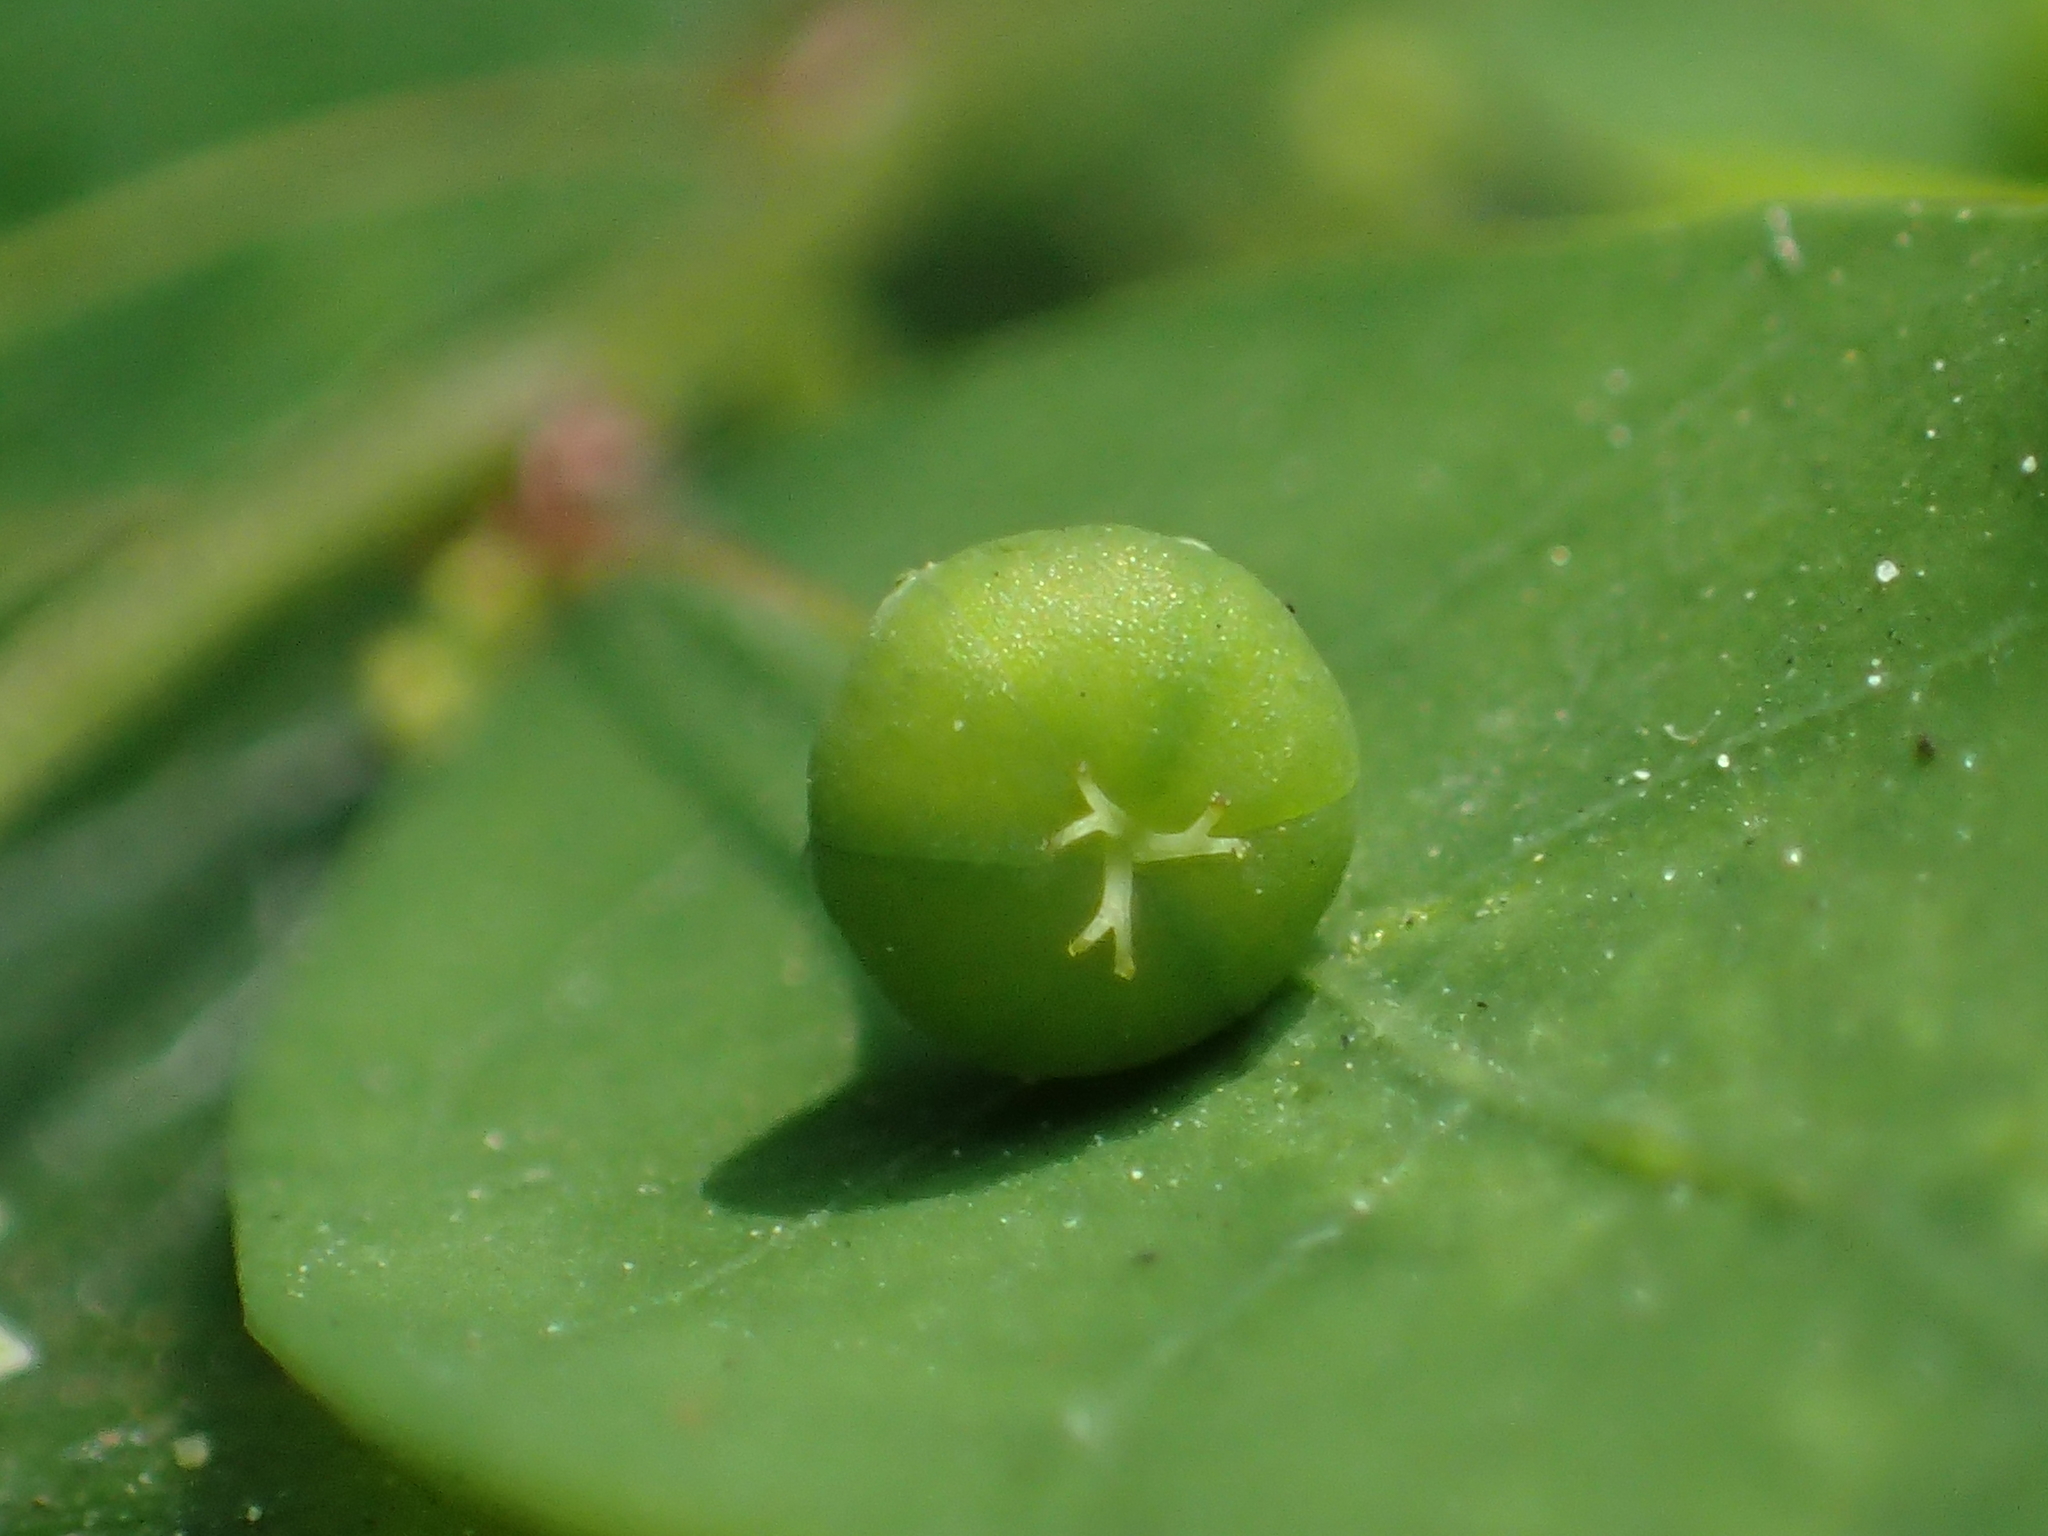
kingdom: Plantae
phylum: Tracheophyta
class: Magnoliopsida
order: Malpighiales
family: Phyllanthaceae
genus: Phyllanthus
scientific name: Phyllanthus tenellus
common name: Mascarene island leaf-flower
